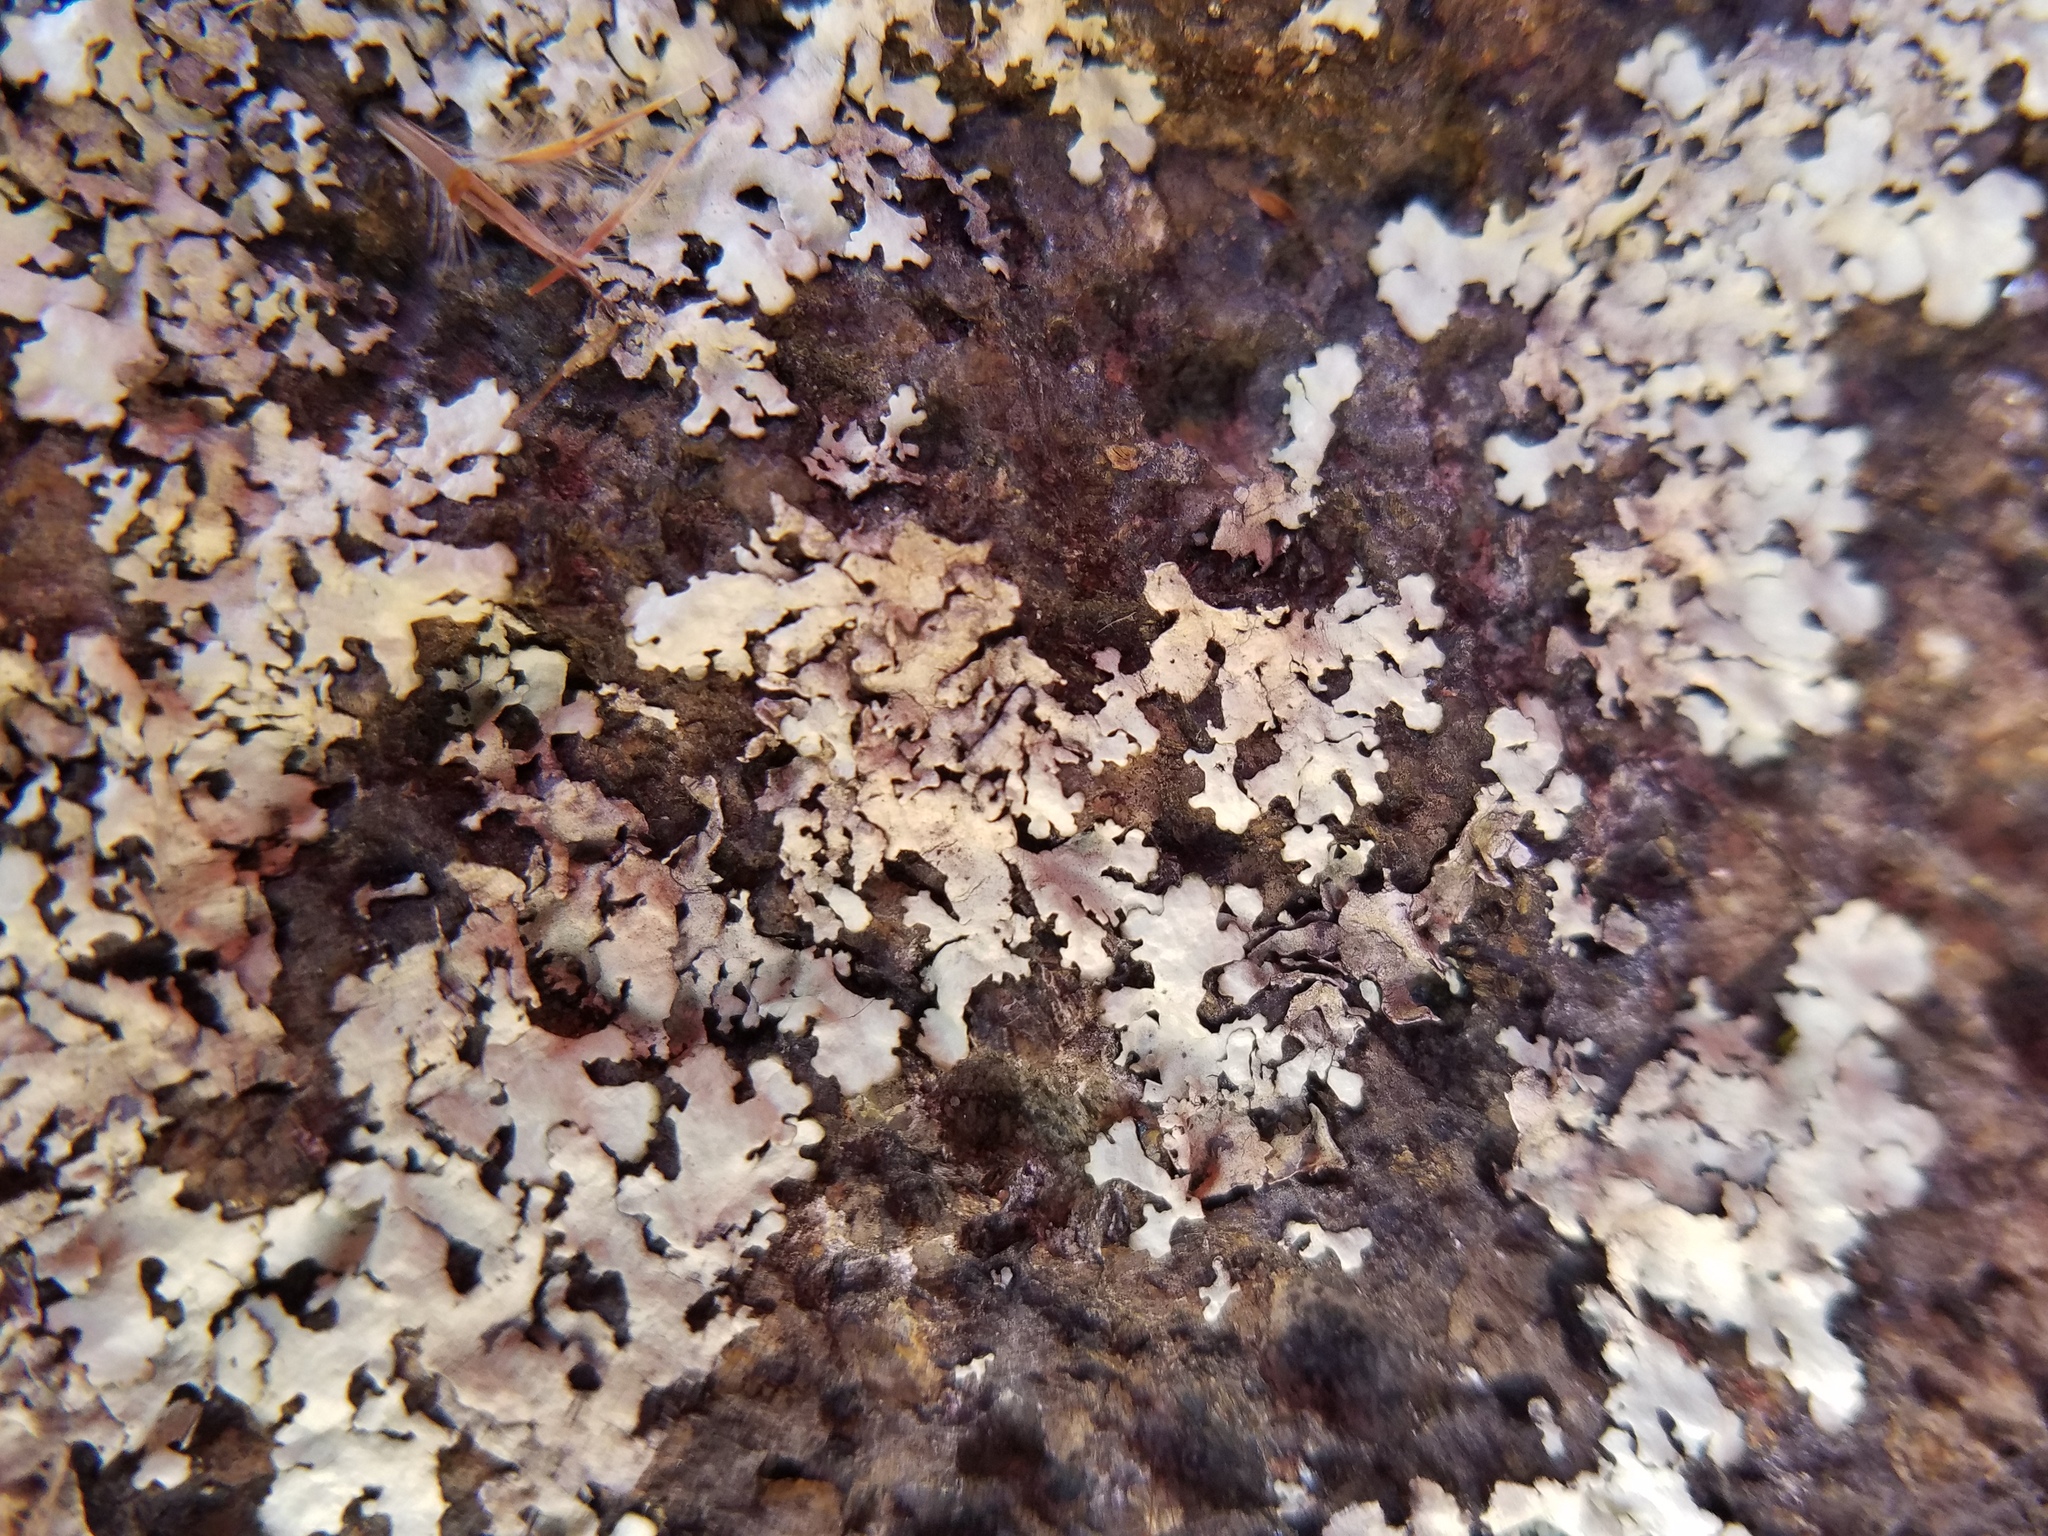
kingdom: Fungi
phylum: Ascomycota
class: Lecanoromycetes
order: Lecanorales
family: Parmeliaceae
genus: Xanthoparmelia
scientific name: Xanthoparmelia conspersa
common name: Peppered rock shield
